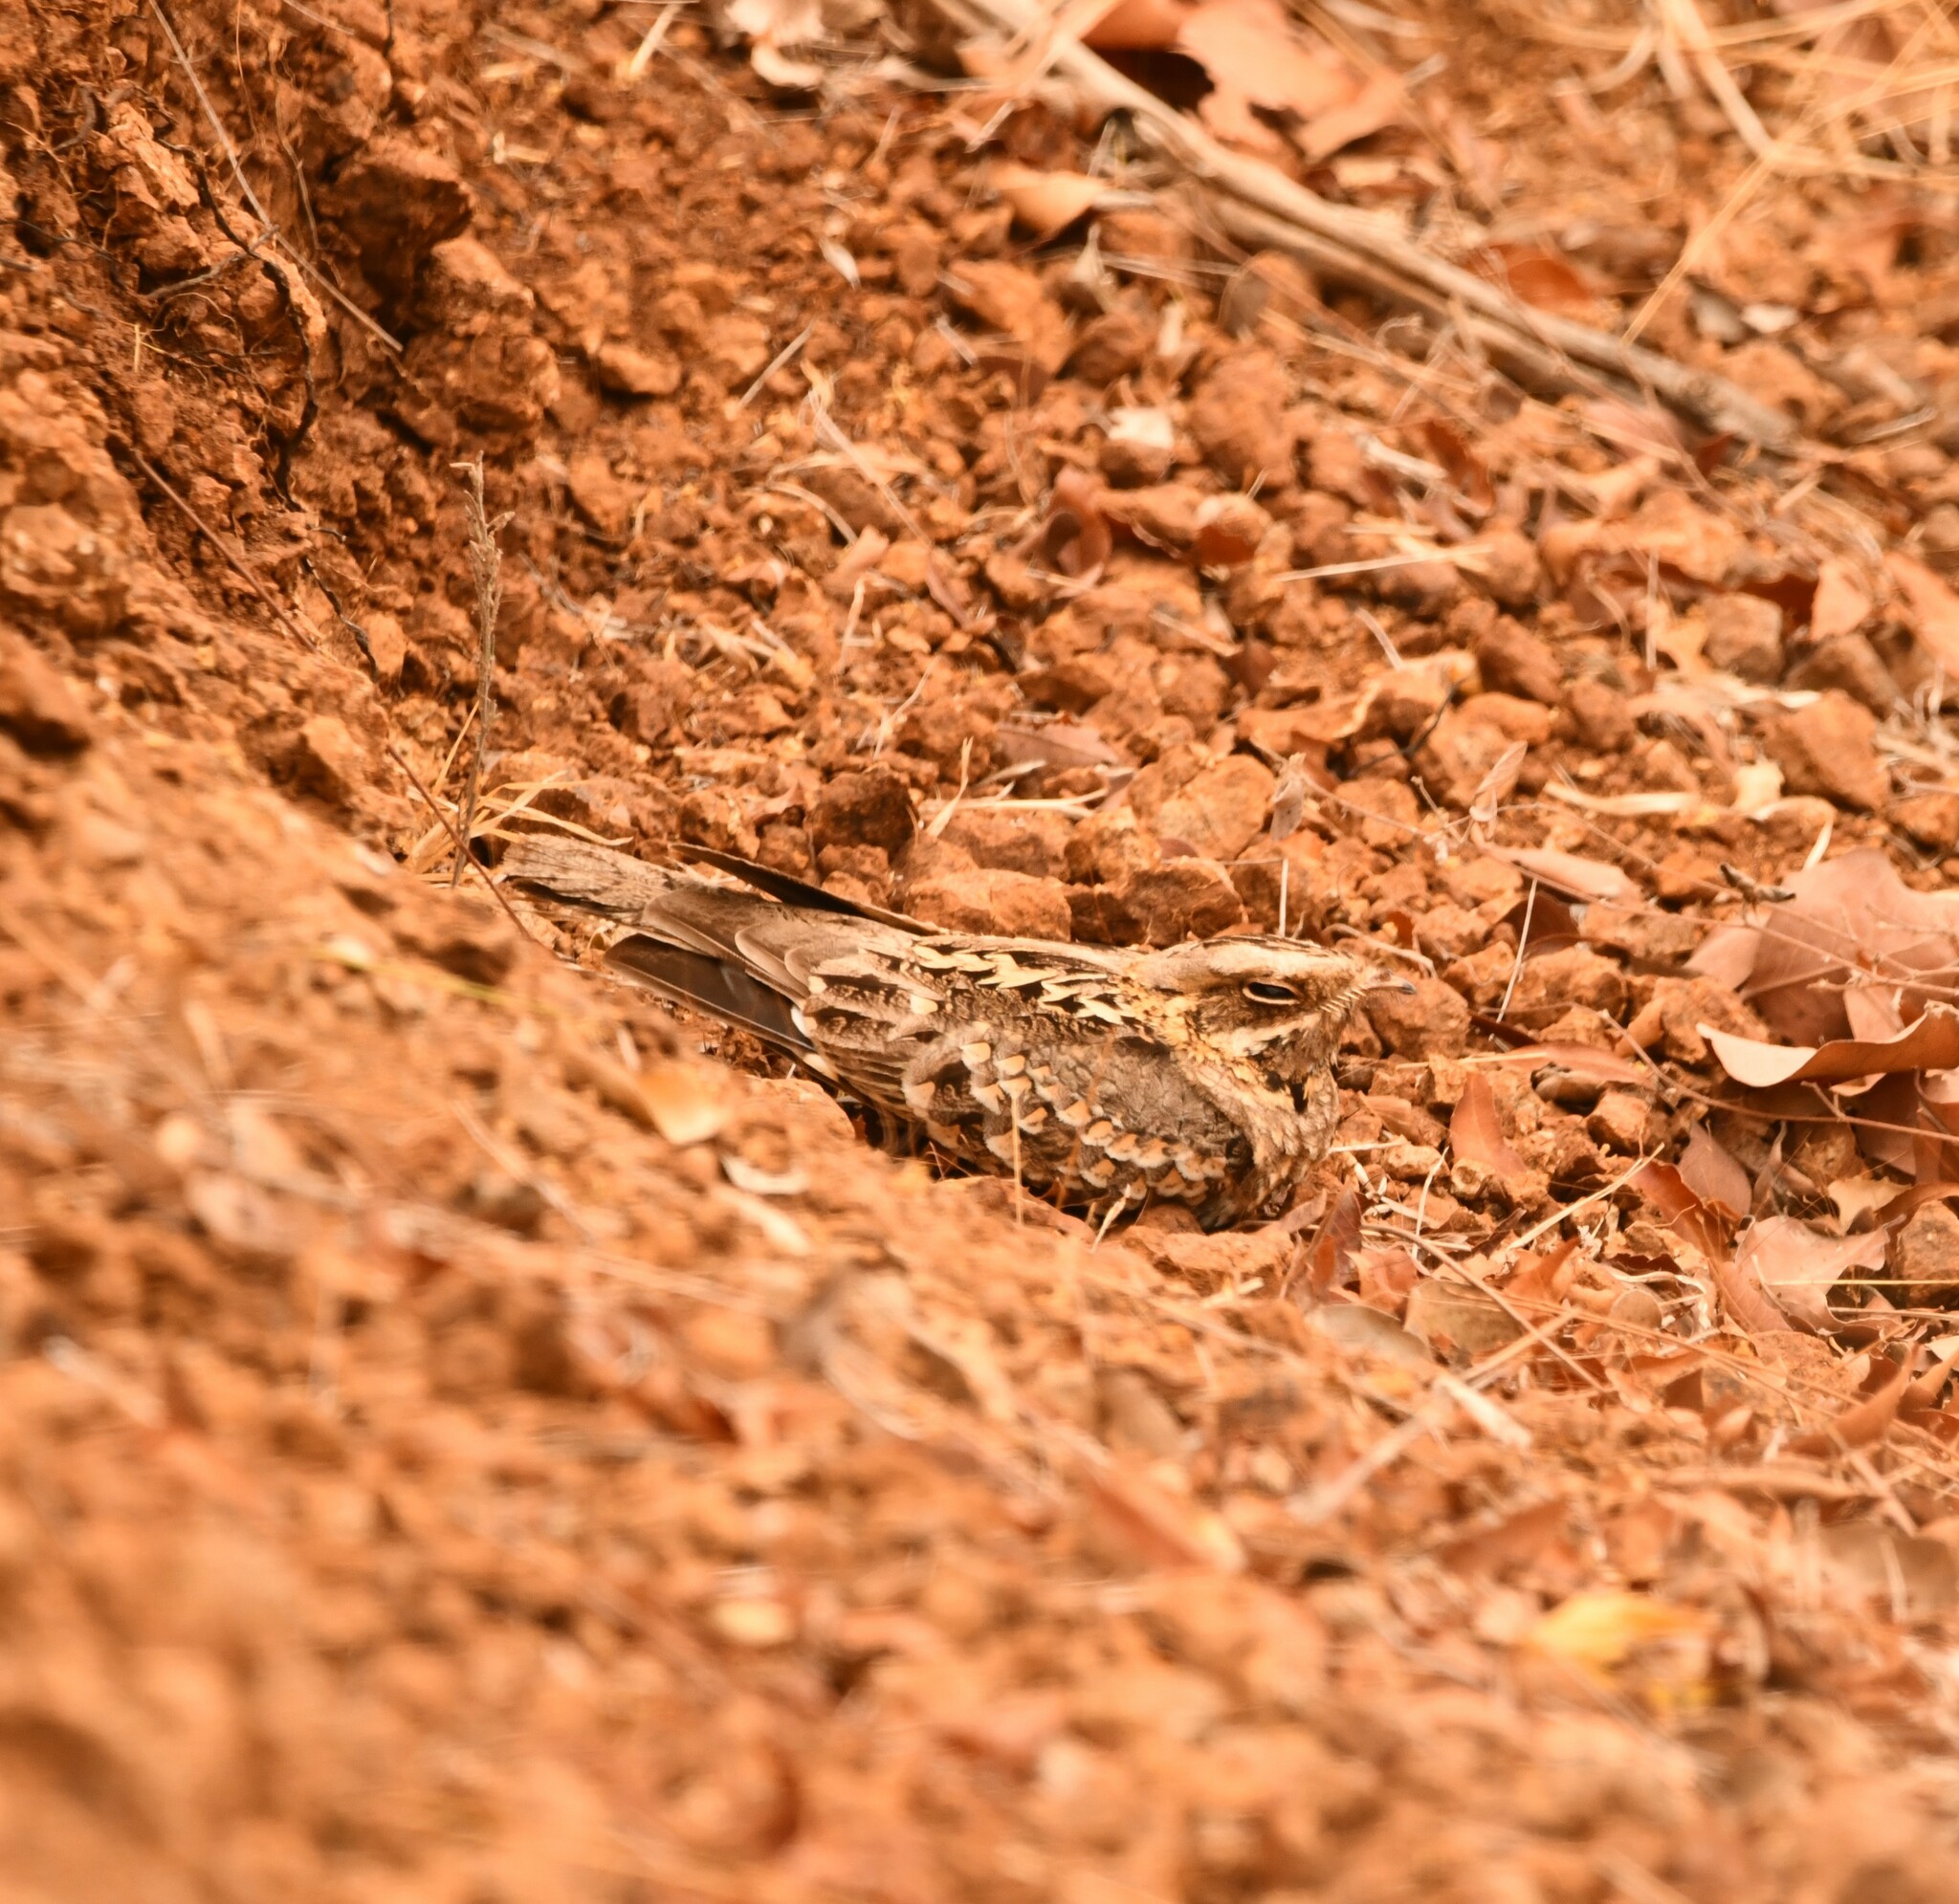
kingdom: Animalia
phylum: Chordata
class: Aves
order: Caprimulgiformes
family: Caprimulgidae
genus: Caprimulgus
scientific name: Caprimulgus asiaticus
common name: Indian nightjar
